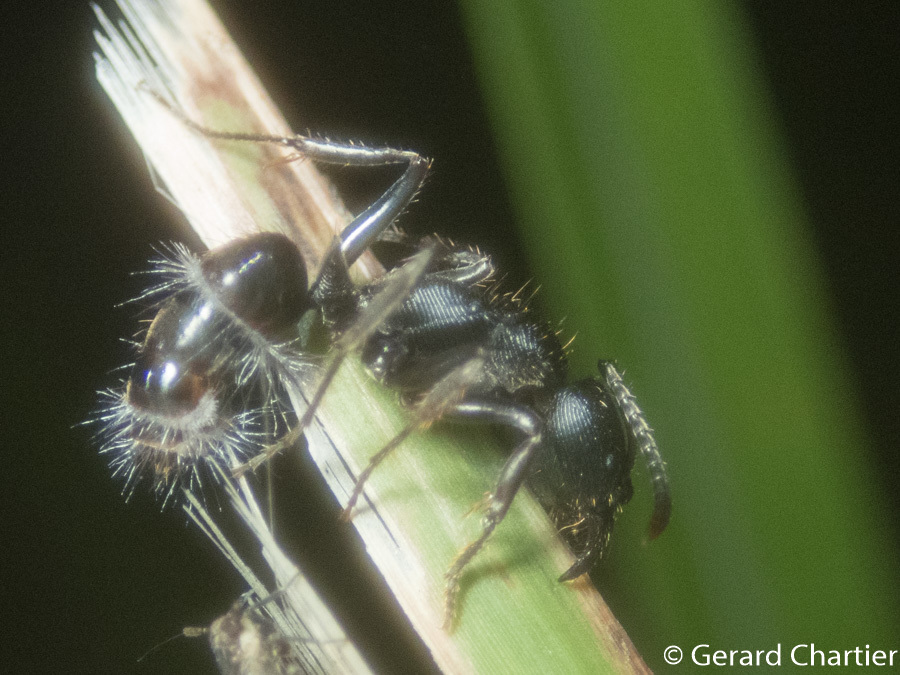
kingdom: Animalia
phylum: Arthropoda
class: Insecta
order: Hymenoptera
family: Formicidae
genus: Odontoponera
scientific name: Odontoponera denticulata
